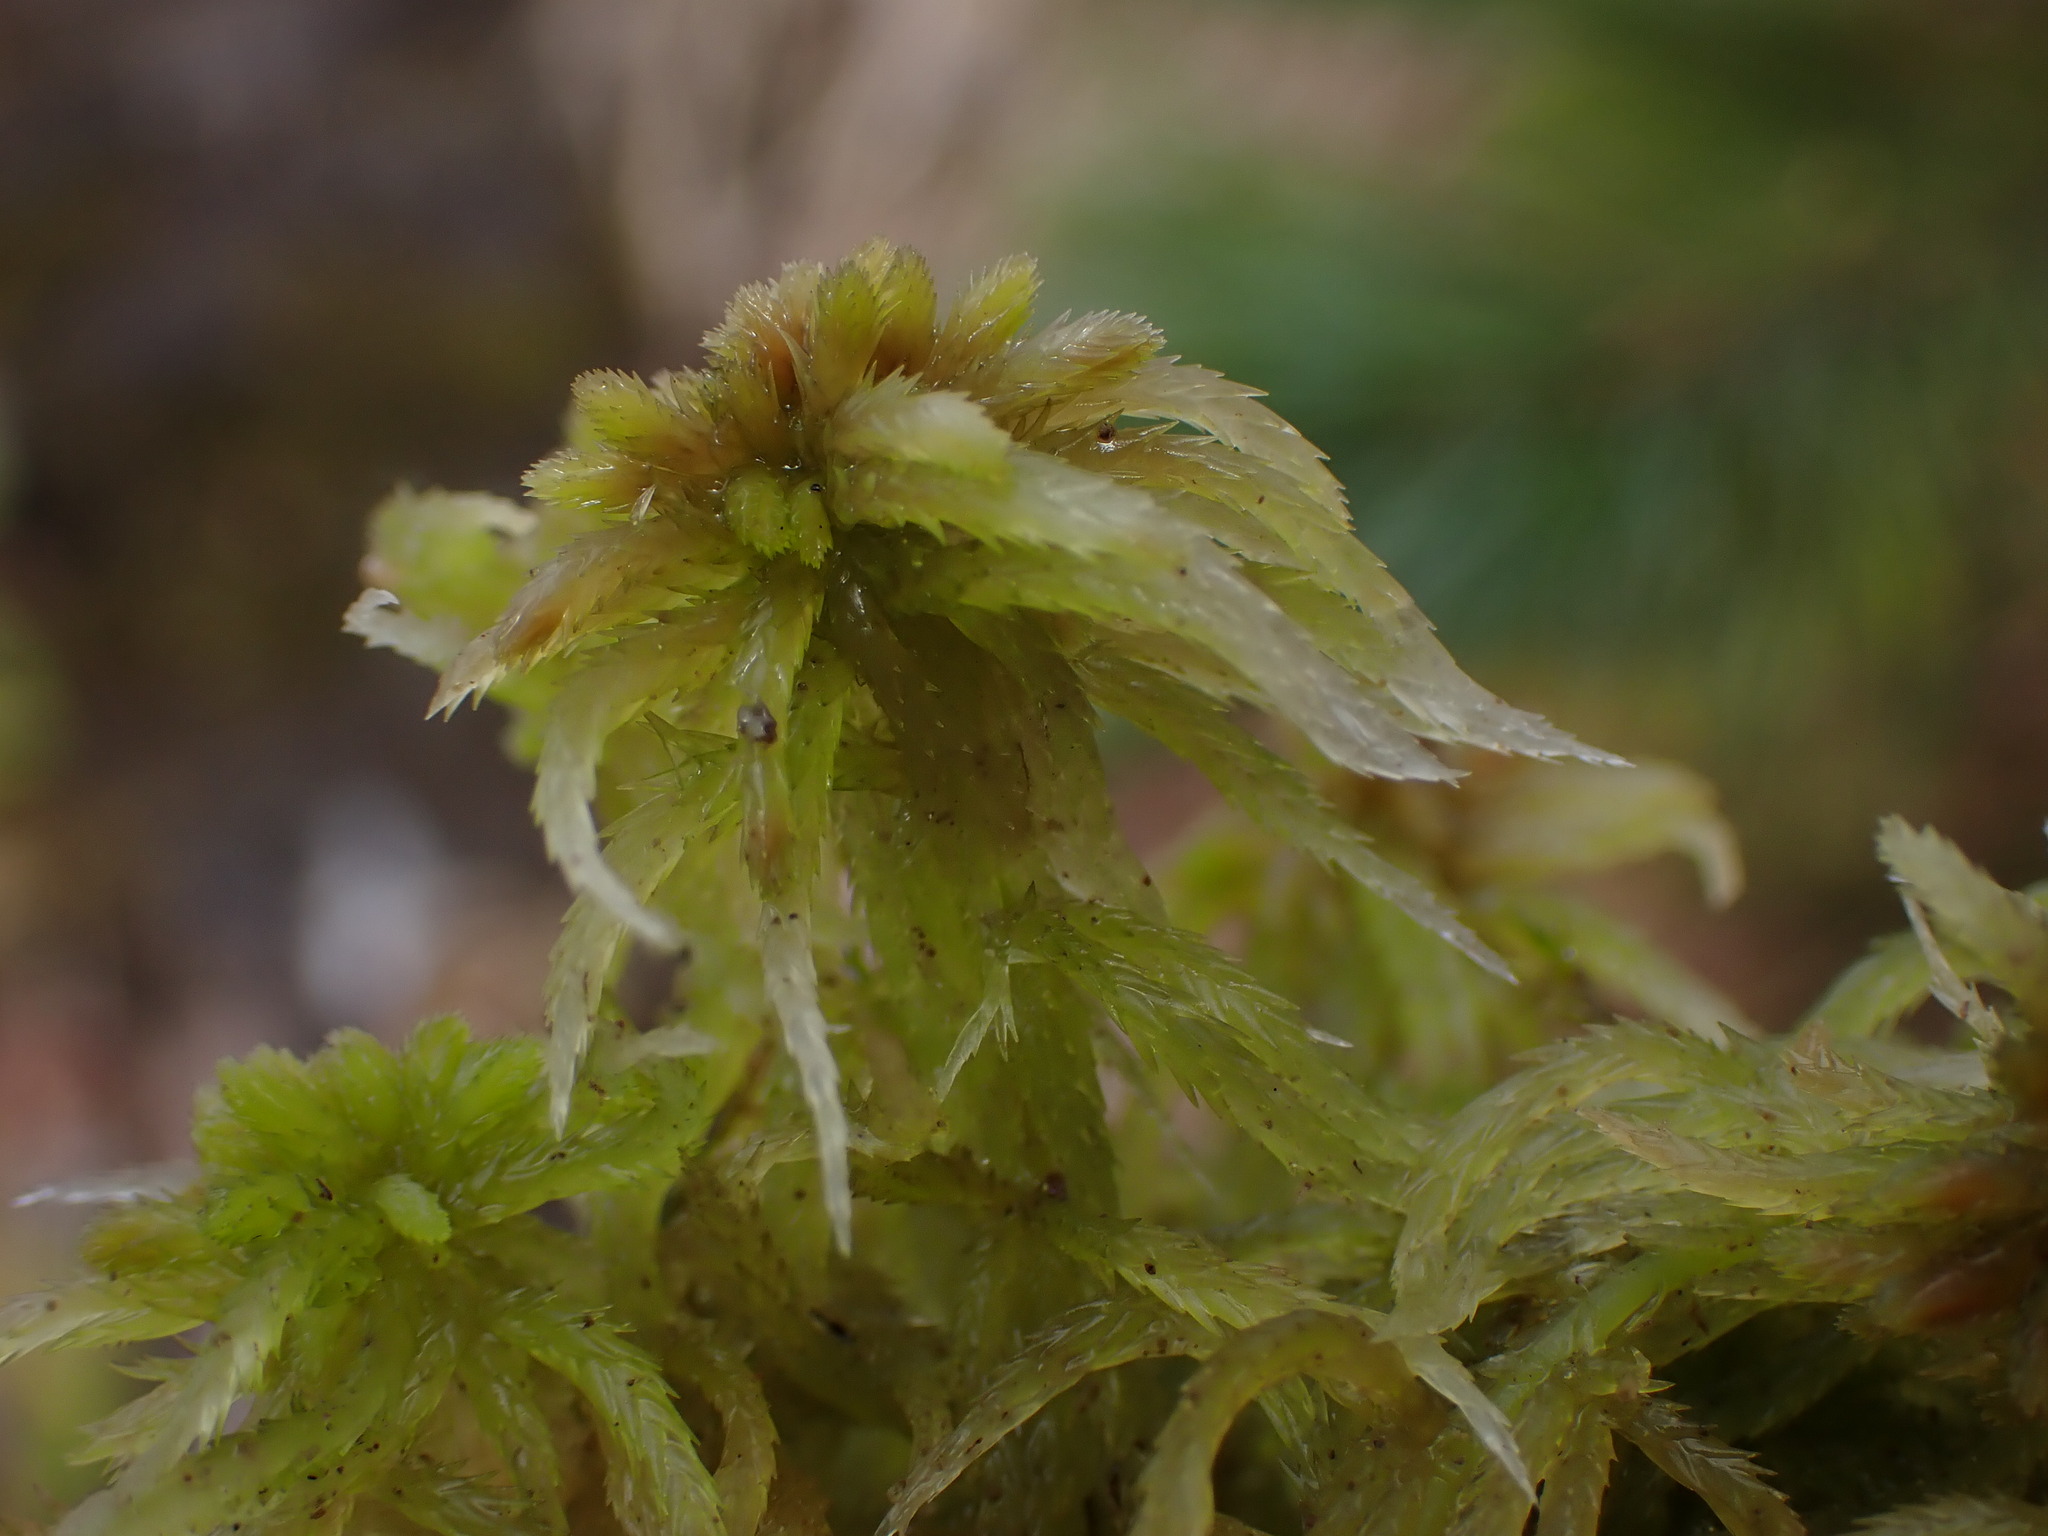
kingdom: Plantae
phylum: Bryophyta
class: Sphagnopsida
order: Sphagnales
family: Sphagnaceae
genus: Sphagnum
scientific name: Sphagnum pacificum
